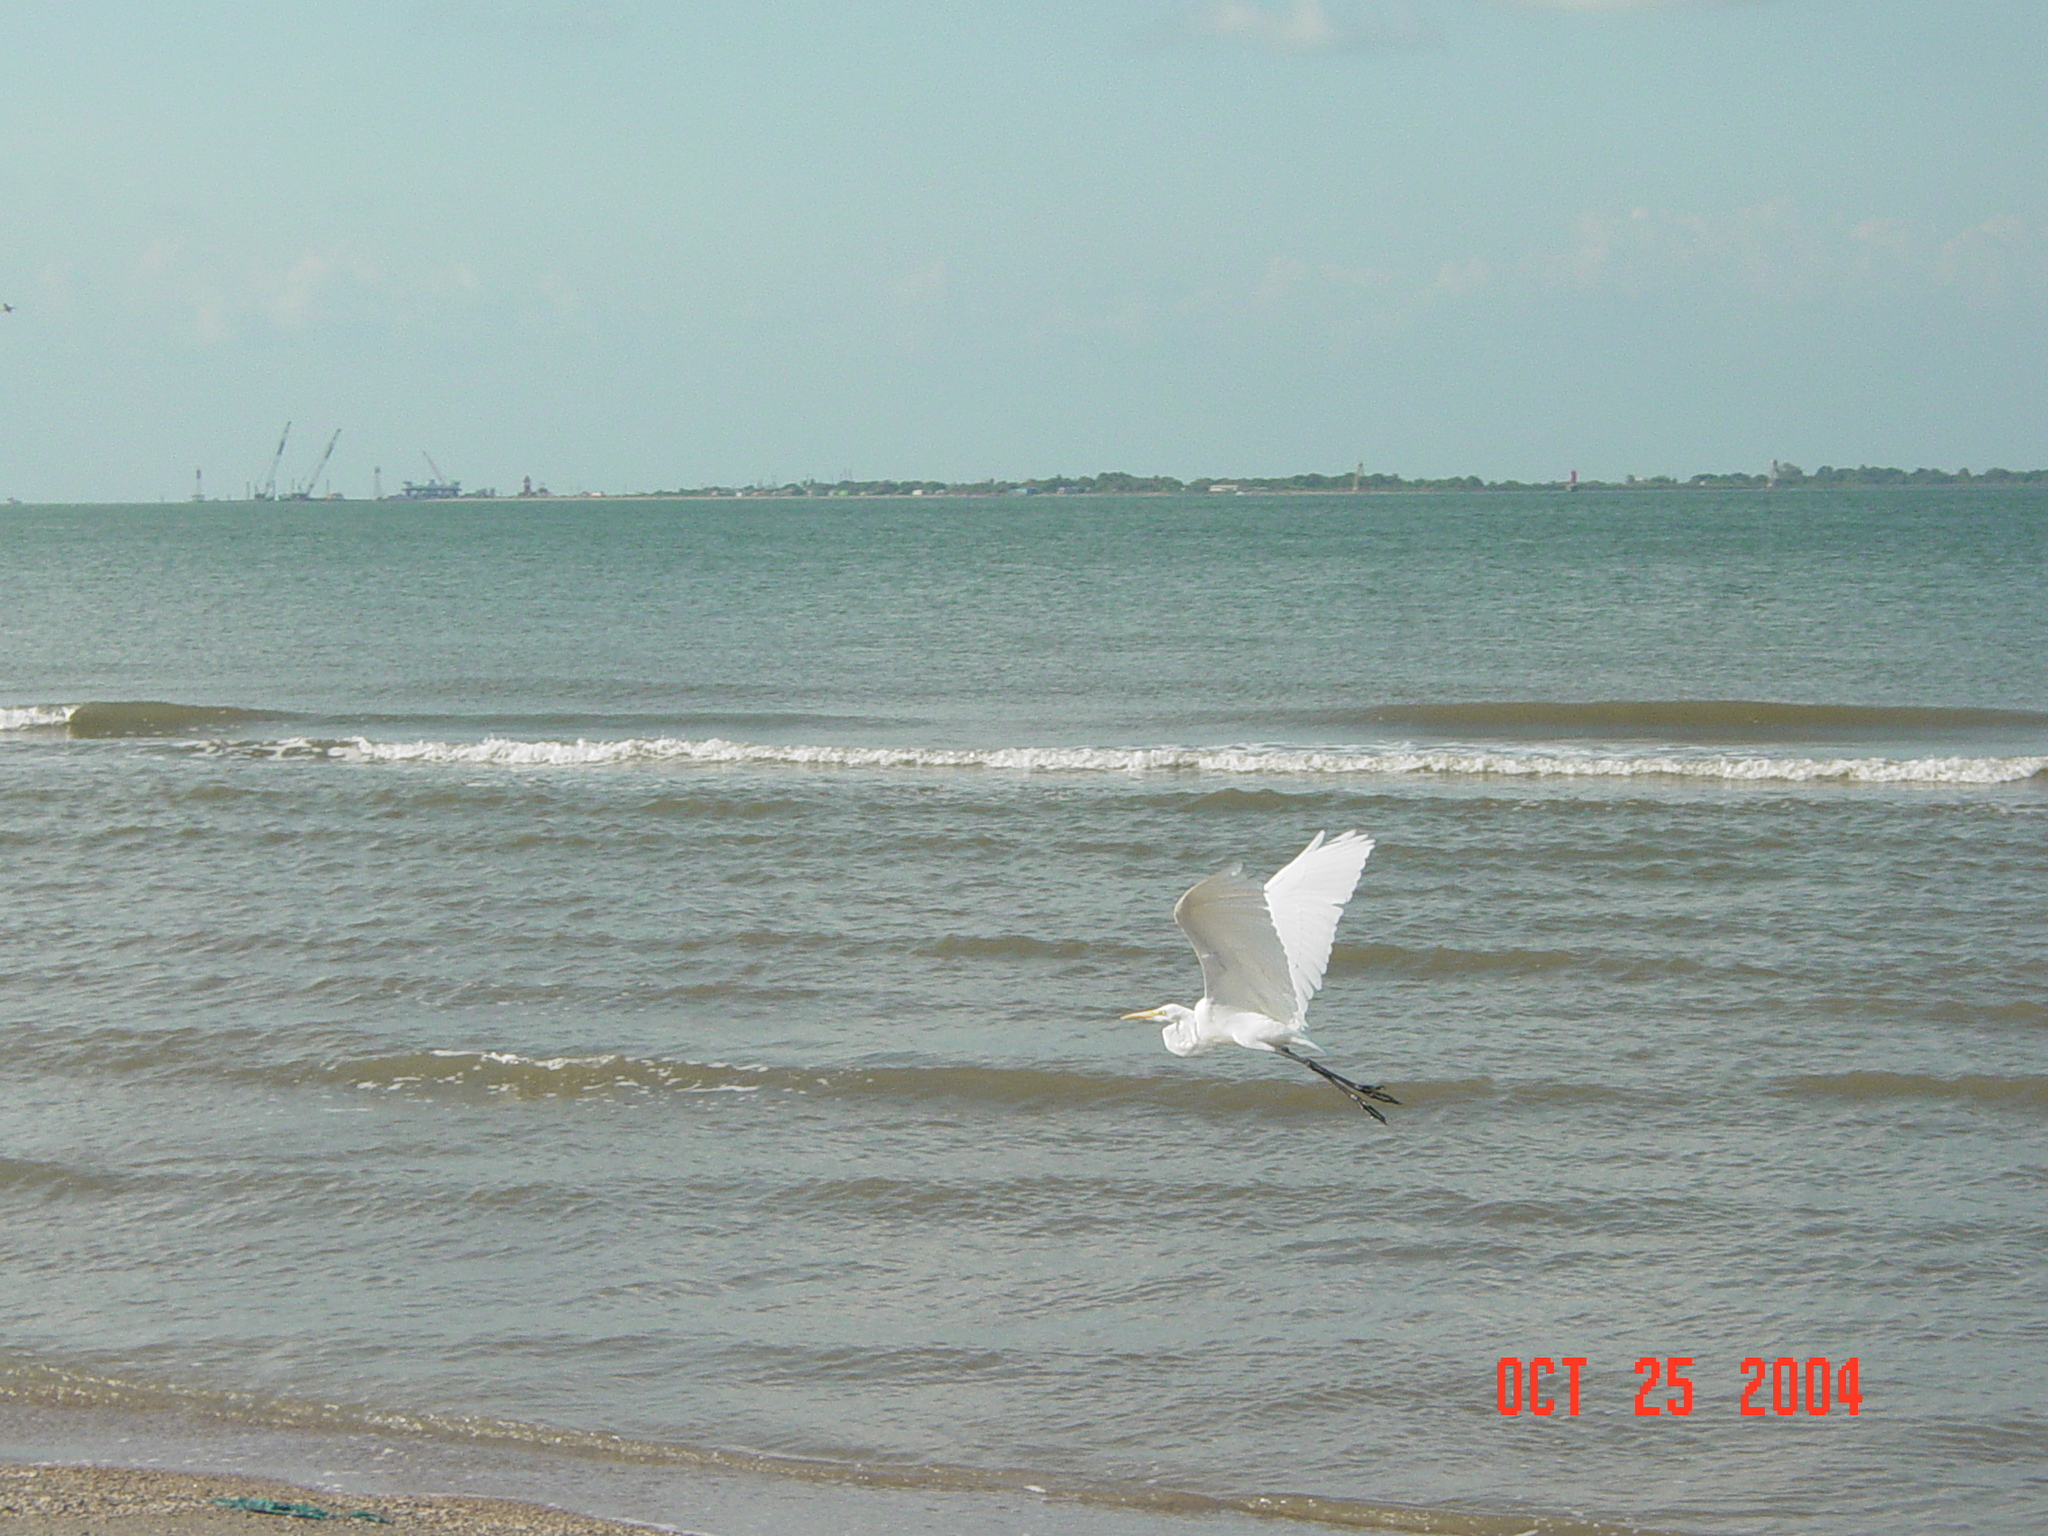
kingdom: Animalia
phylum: Chordata
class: Aves
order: Pelecaniformes
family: Ardeidae
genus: Ardea
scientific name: Ardea alba
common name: Great egret
